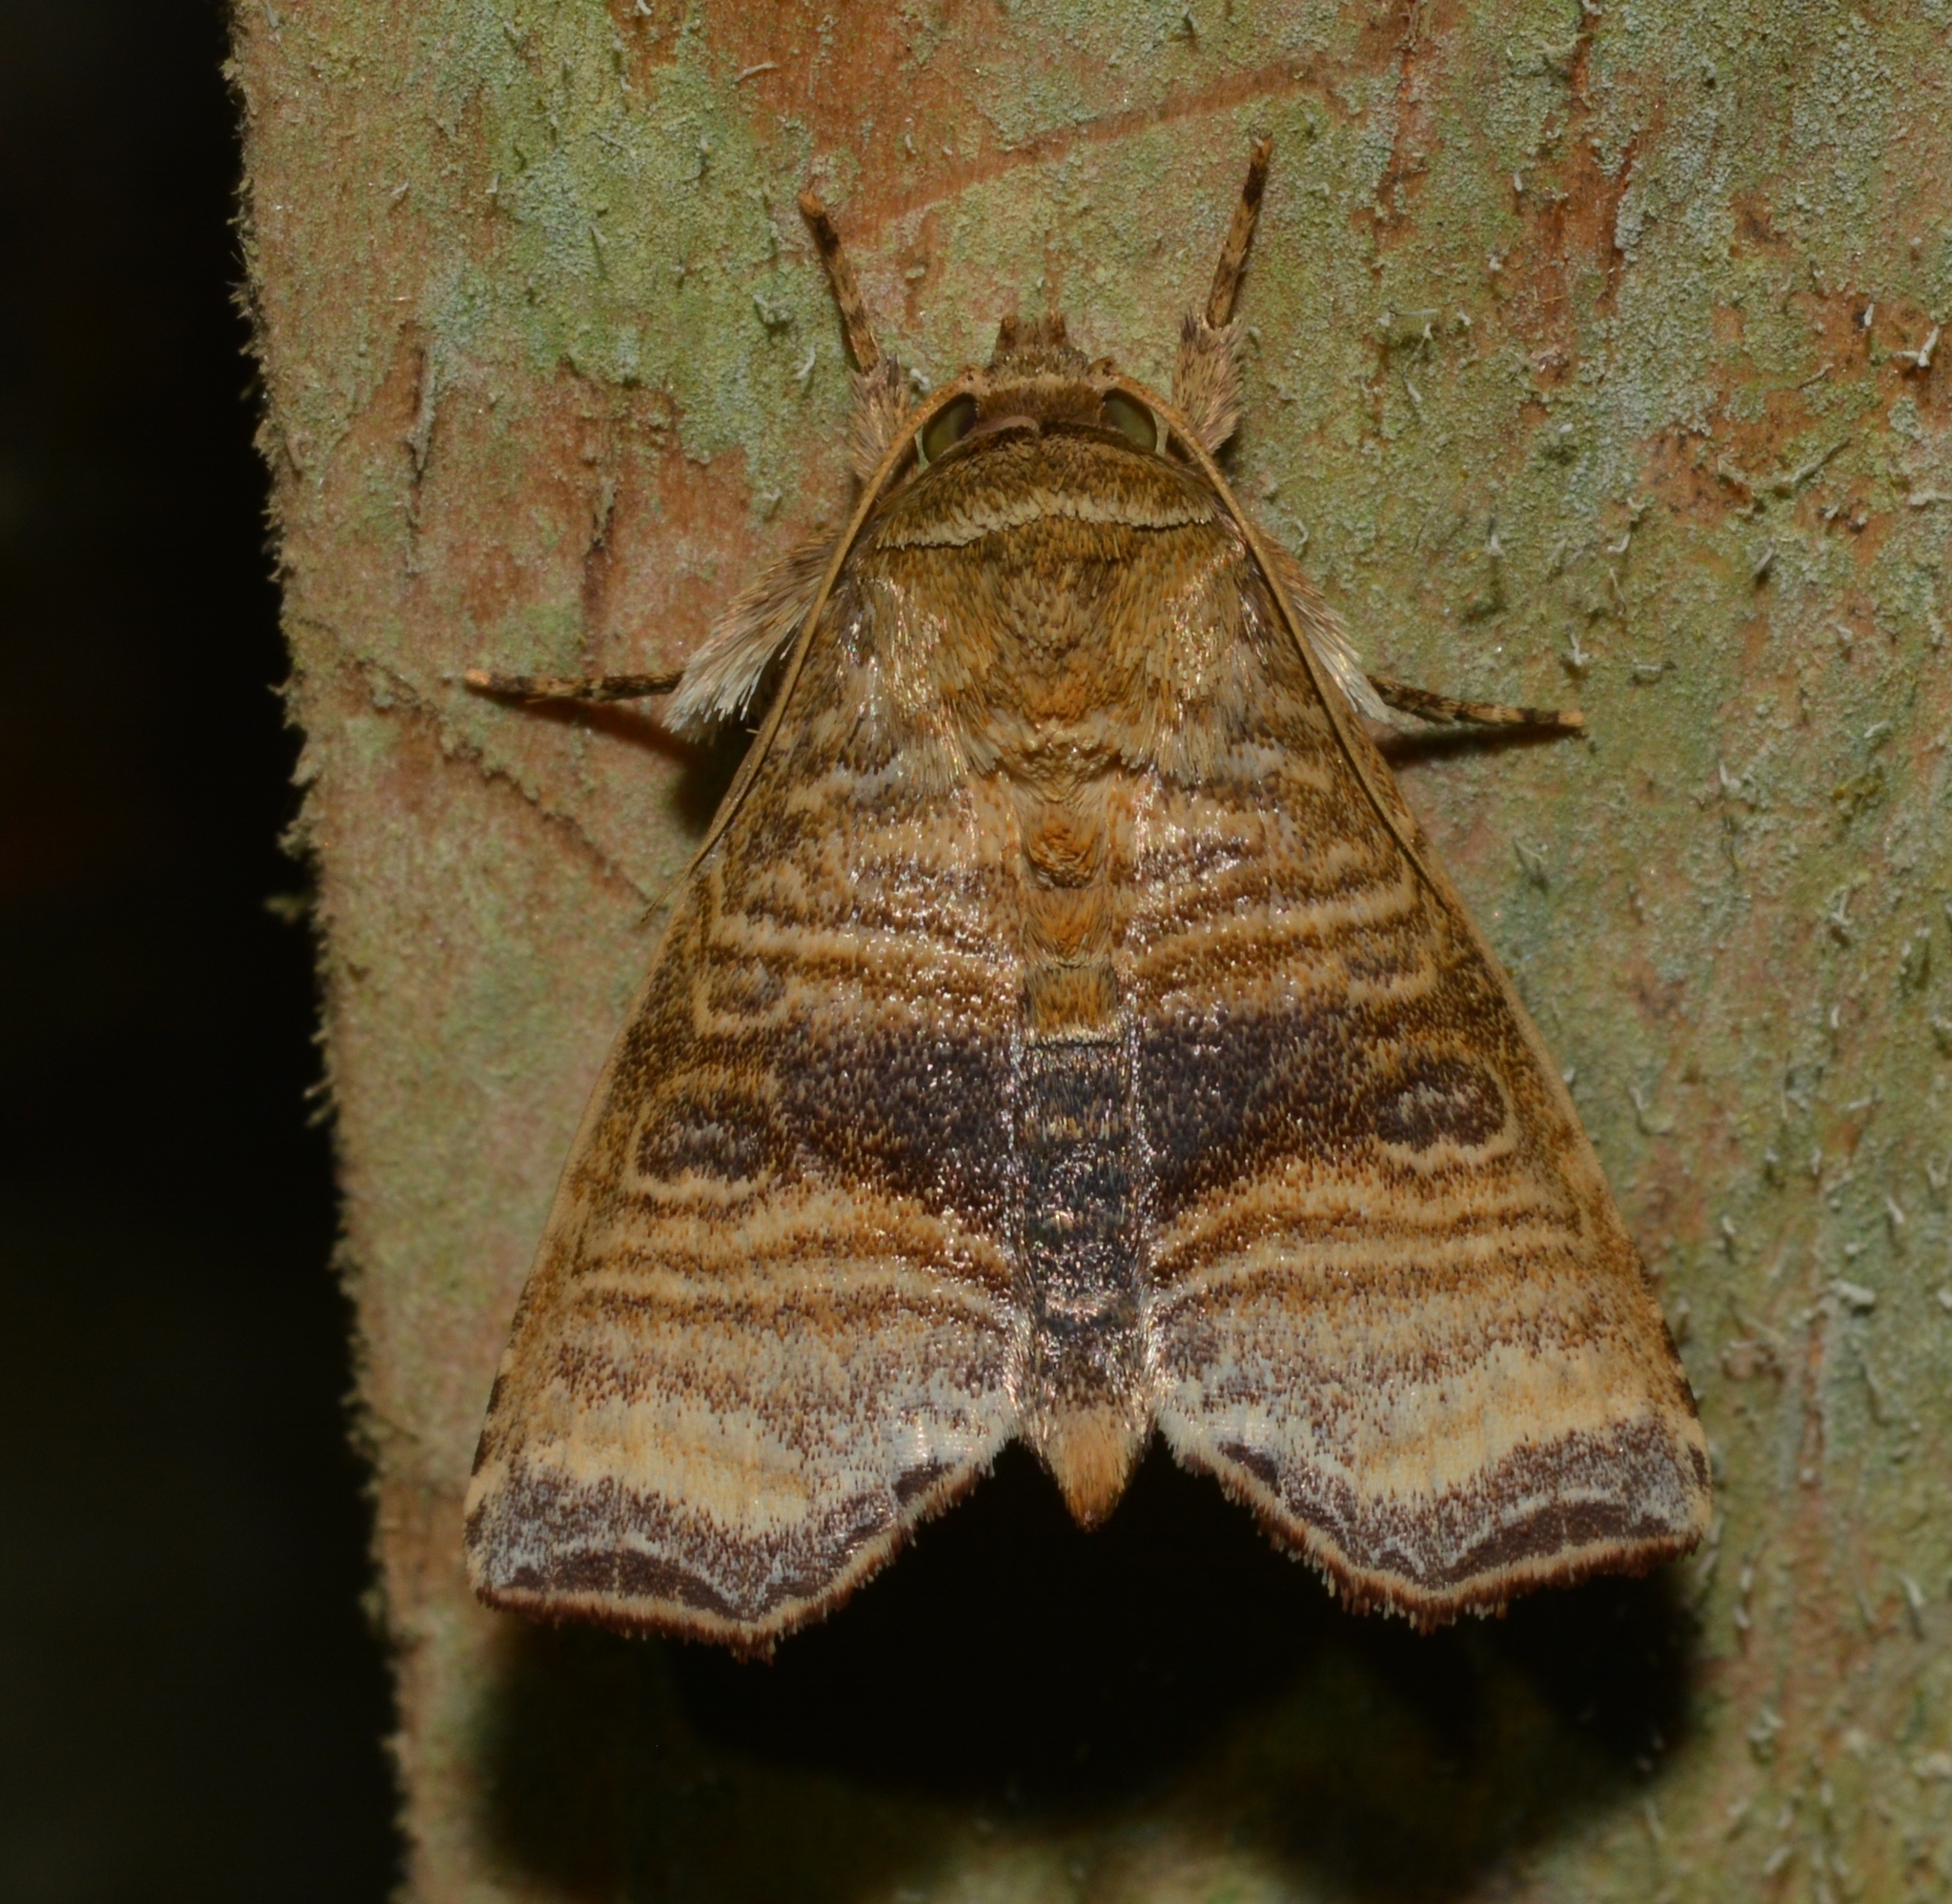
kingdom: Animalia
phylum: Arthropoda
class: Insecta
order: Lepidoptera
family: Noctuidae
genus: Phuphena
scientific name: Phuphena multilinea
